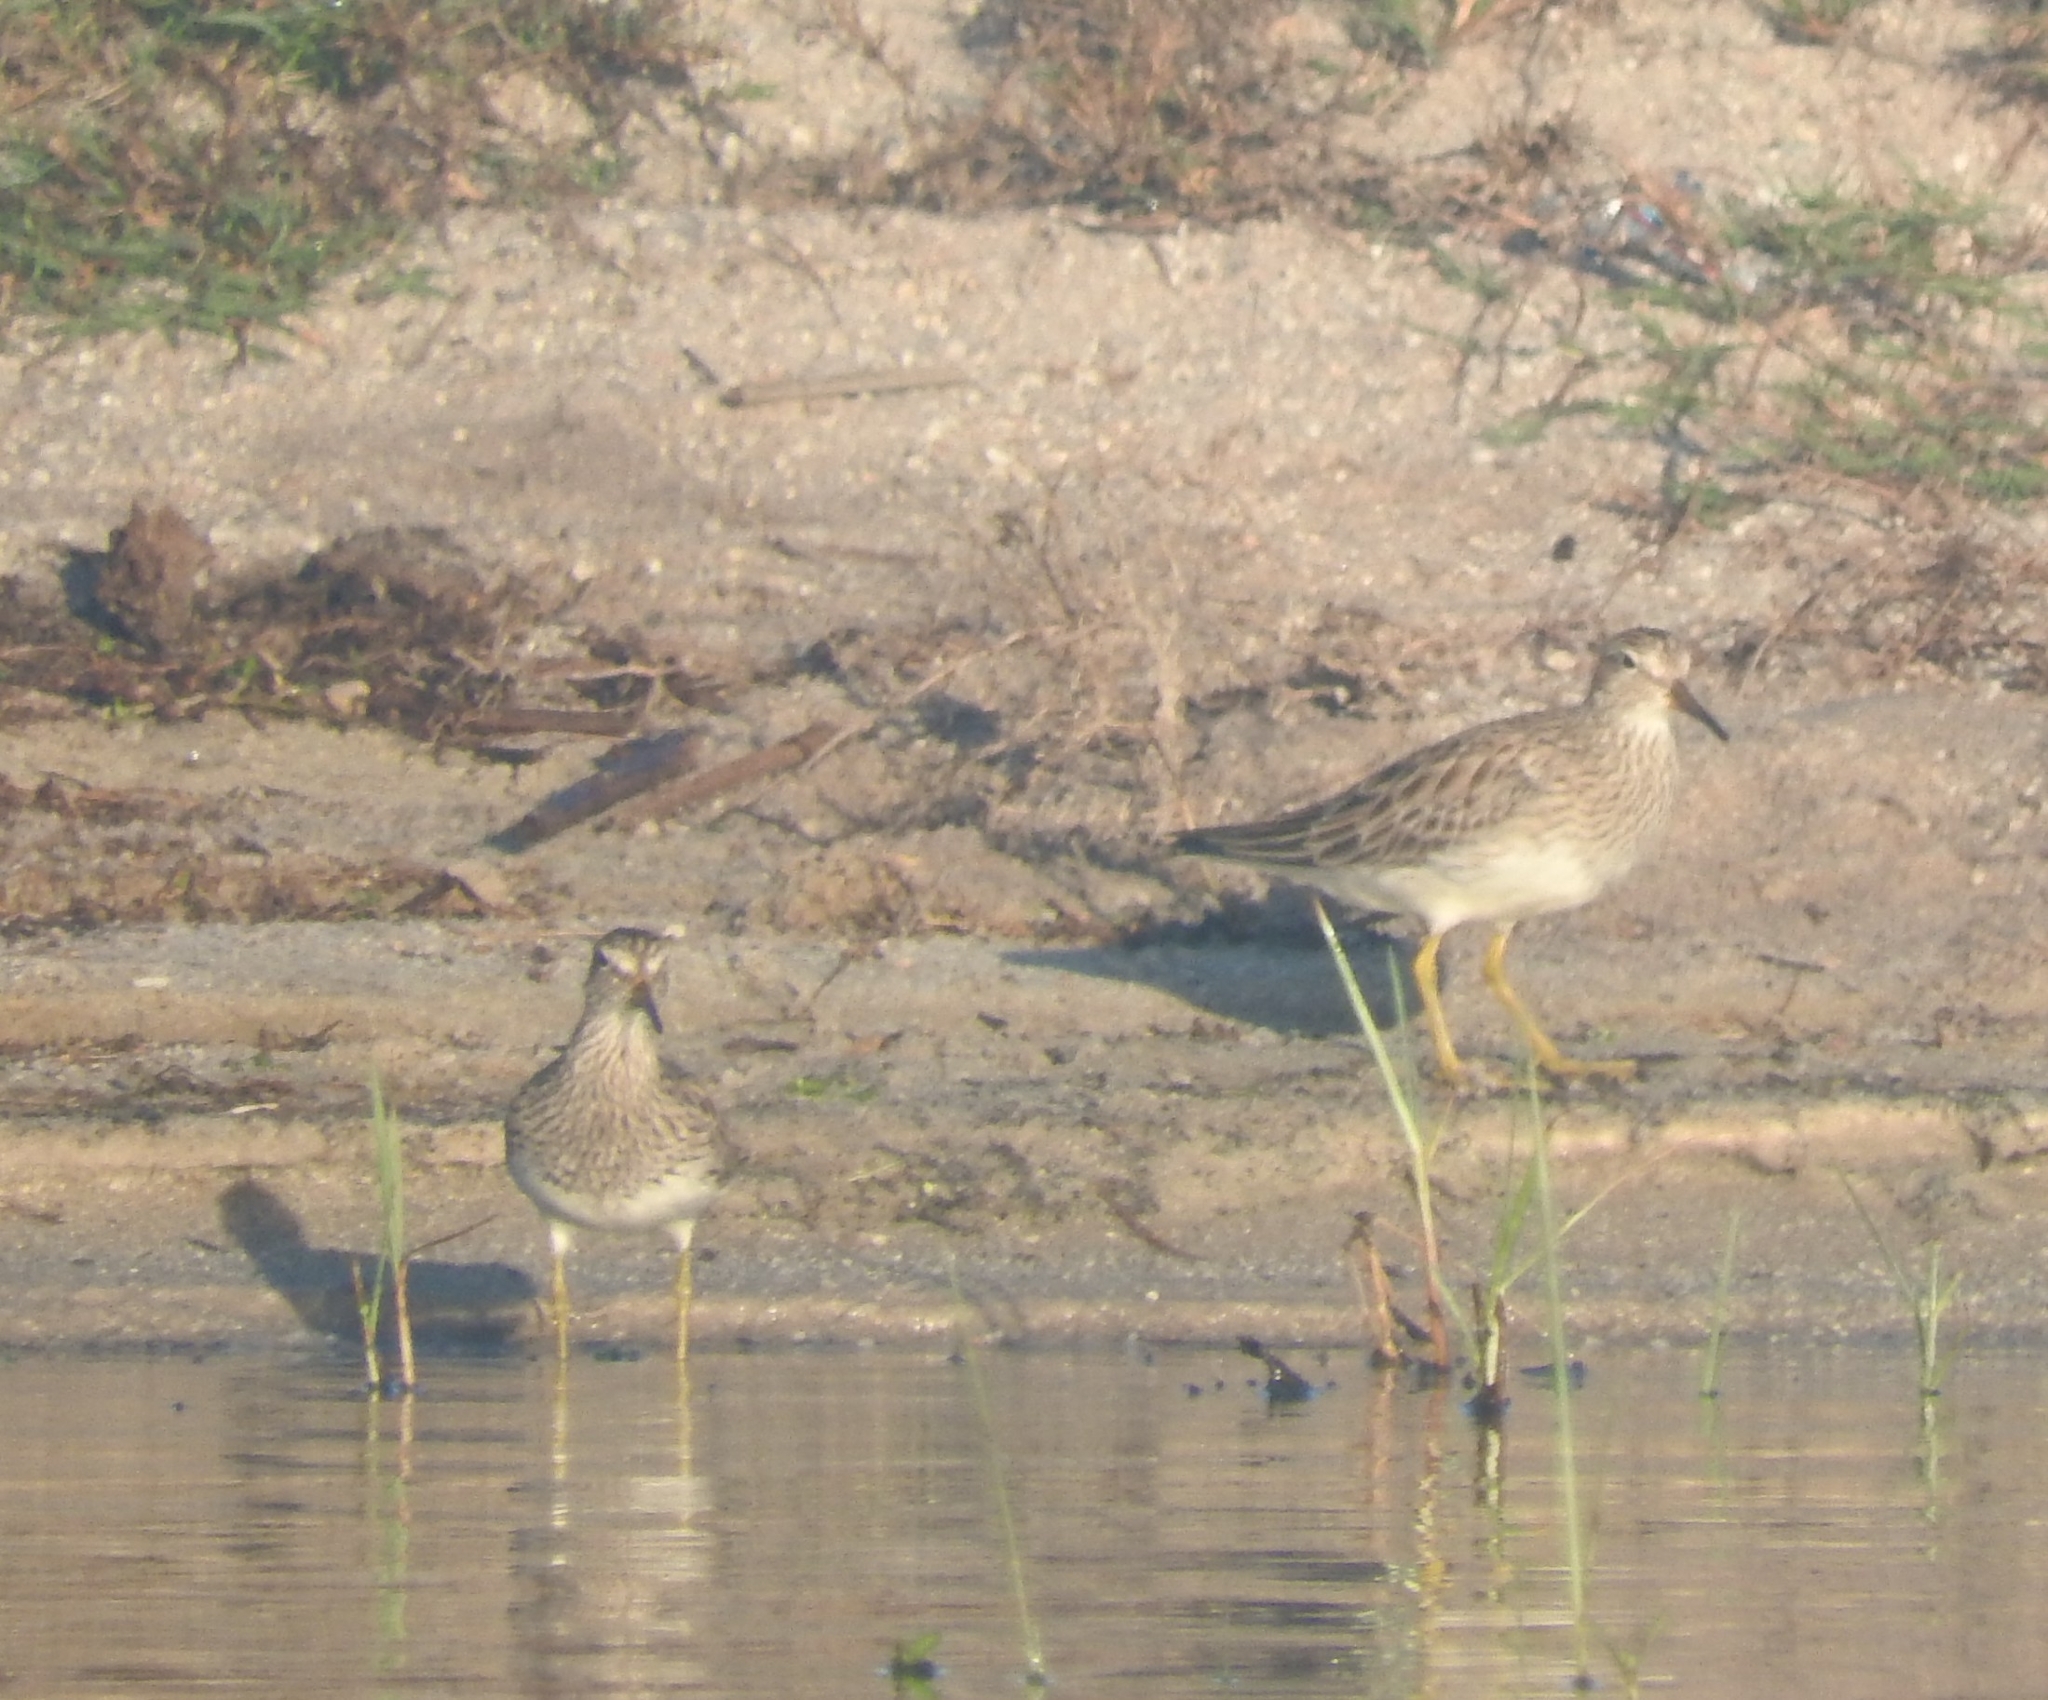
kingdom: Animalia
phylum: Chordata
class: Aves
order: Charadriiformes
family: Scolopacidae
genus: Calidris
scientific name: Calidris melanotos
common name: Pectoral sandpiper
